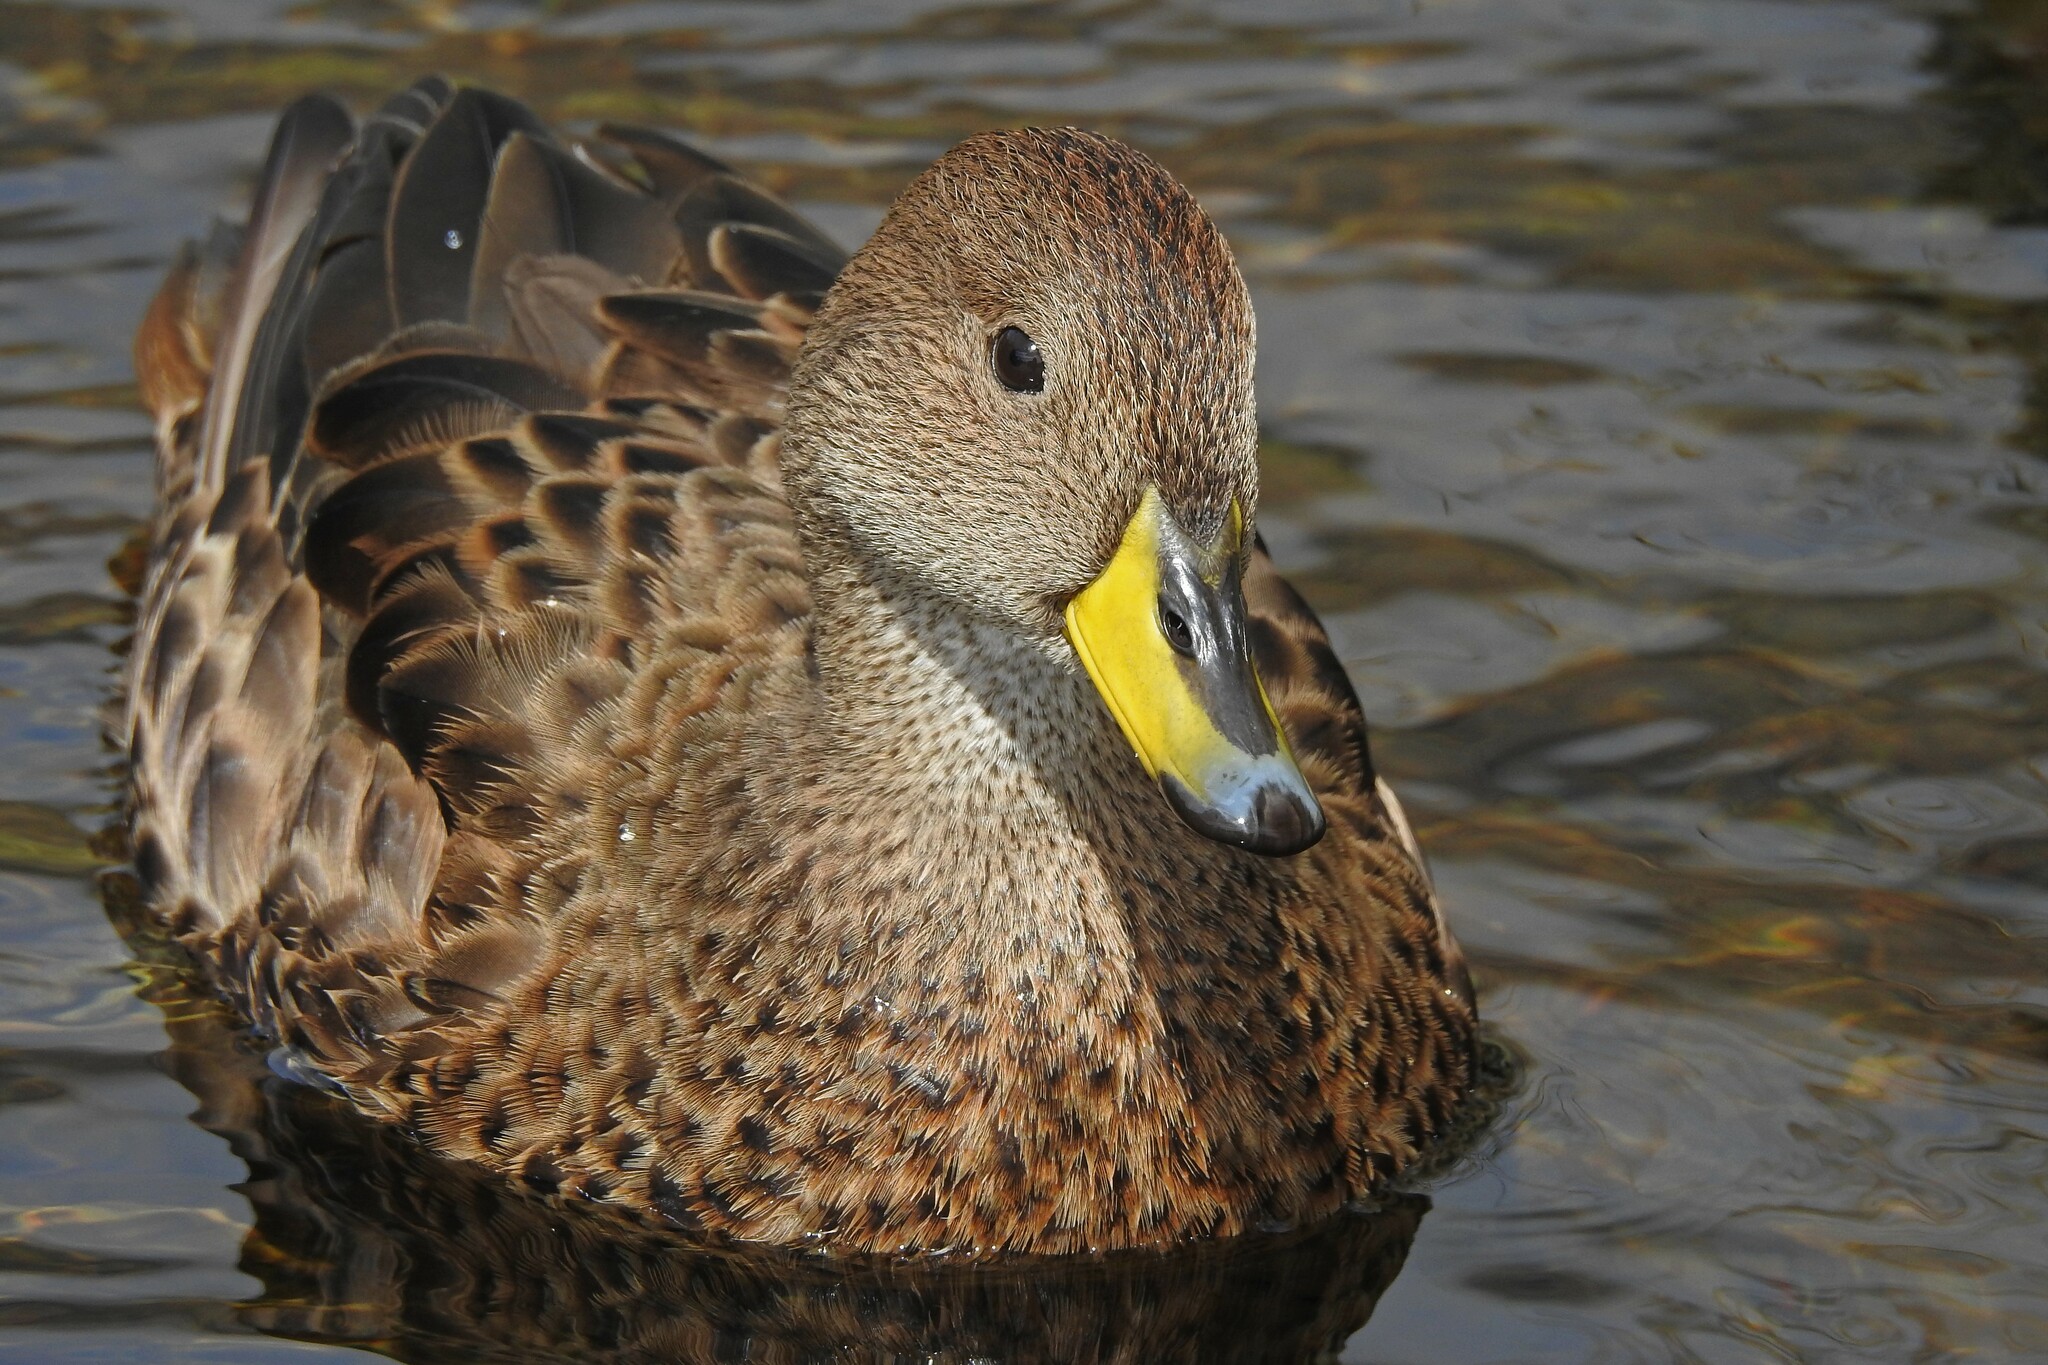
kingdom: Animalia
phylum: Chordata
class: Aves
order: Anseriformes
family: Anatidae
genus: Anas
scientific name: Anas georgica
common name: Yellow-billed pintail
